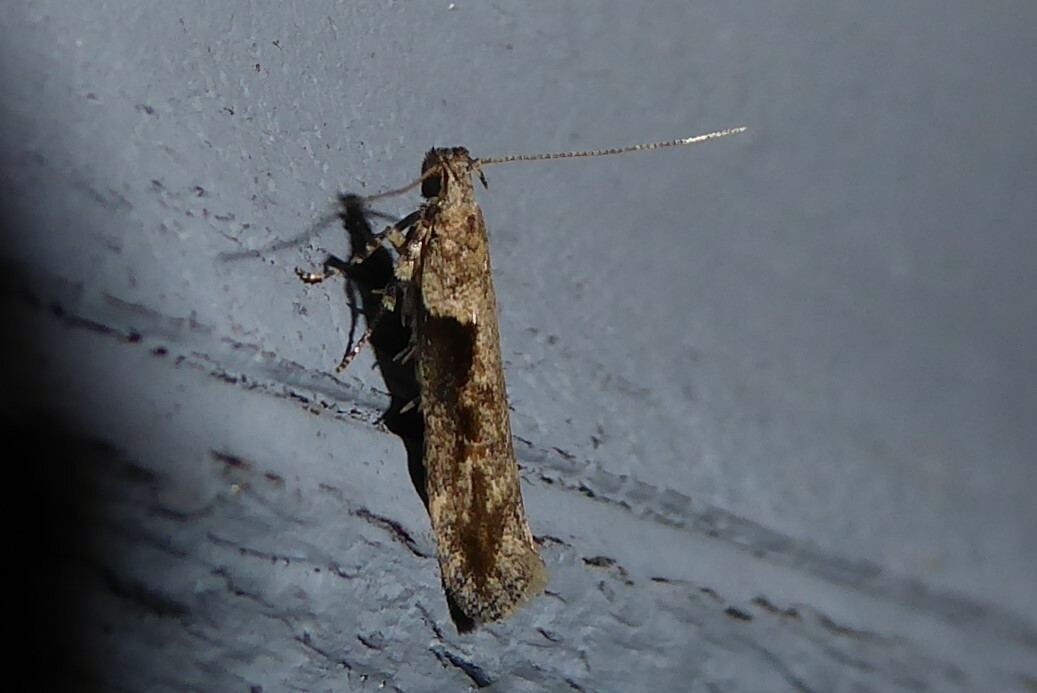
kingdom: Animalia
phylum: Arthropoda
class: Insecta
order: Lepidoptera
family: Gelechiidae
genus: Symmetrischema
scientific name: Symmetrischema tangolias
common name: Moth
